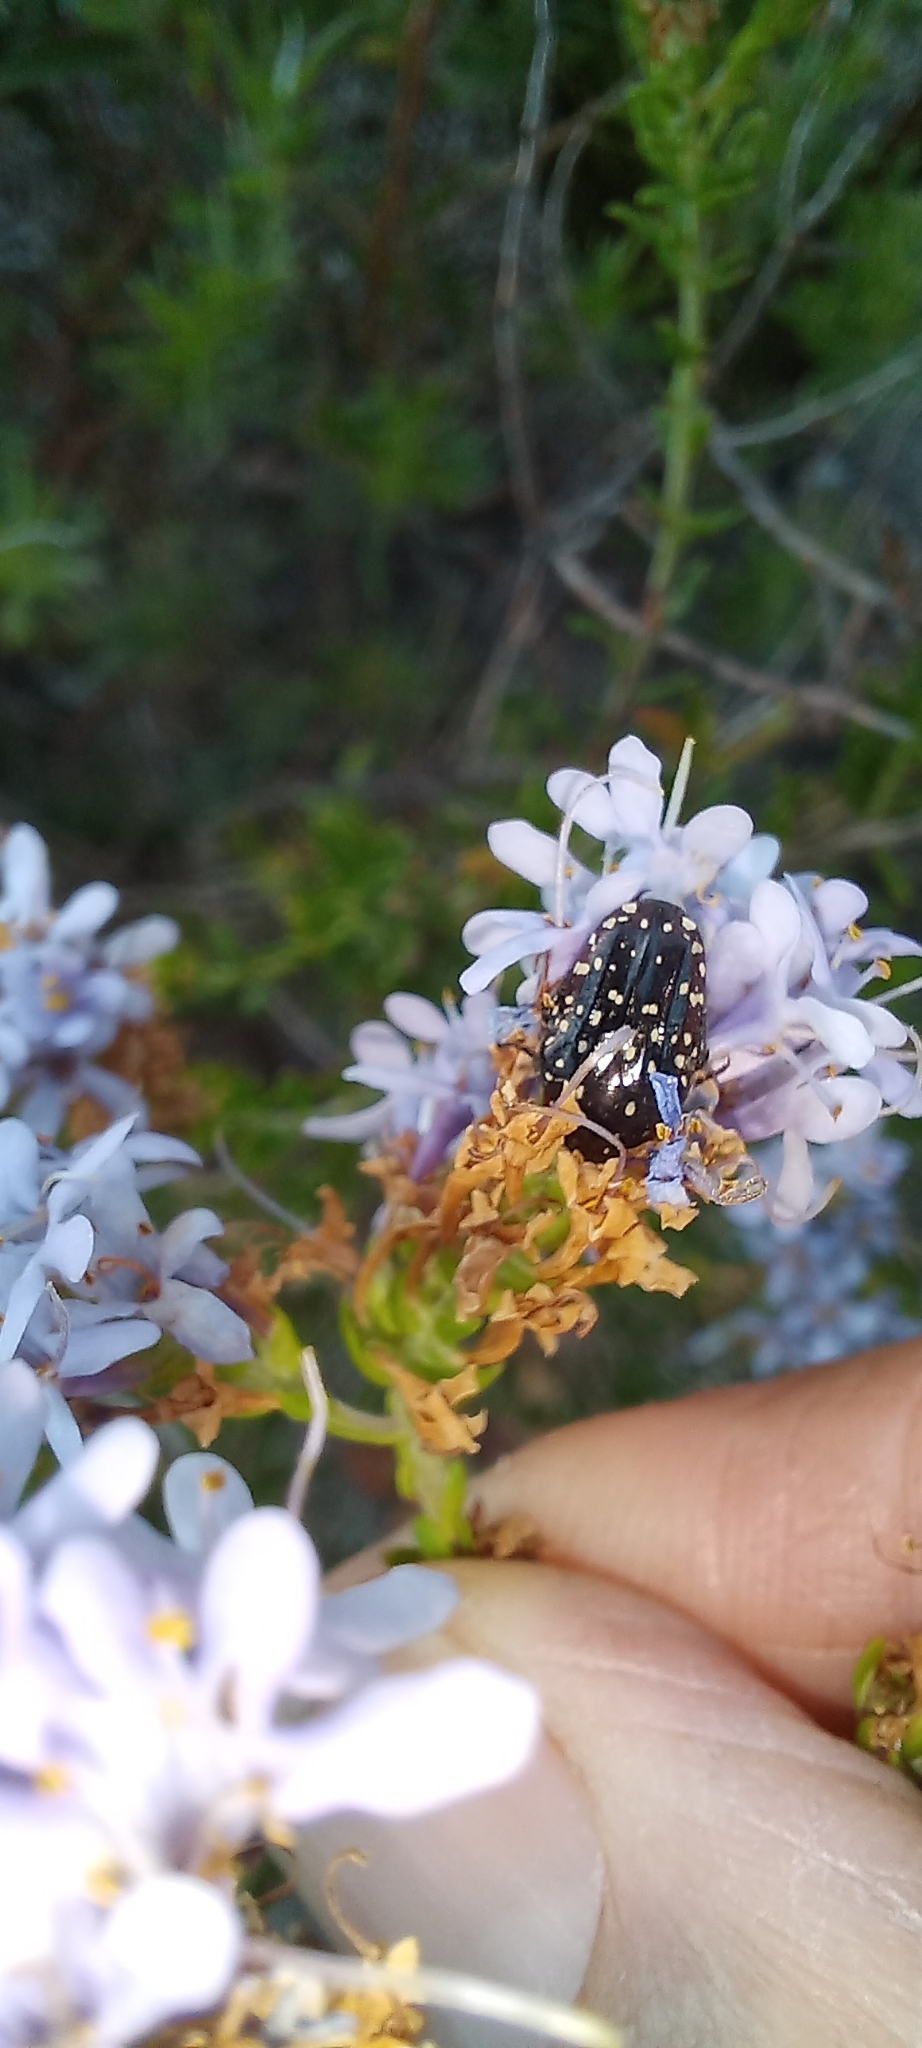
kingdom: Animalia
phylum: Arthropoda
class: Insecta
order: Coleoptera
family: Scarabaeidae
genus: Oxythyrea
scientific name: Oxythyrea
